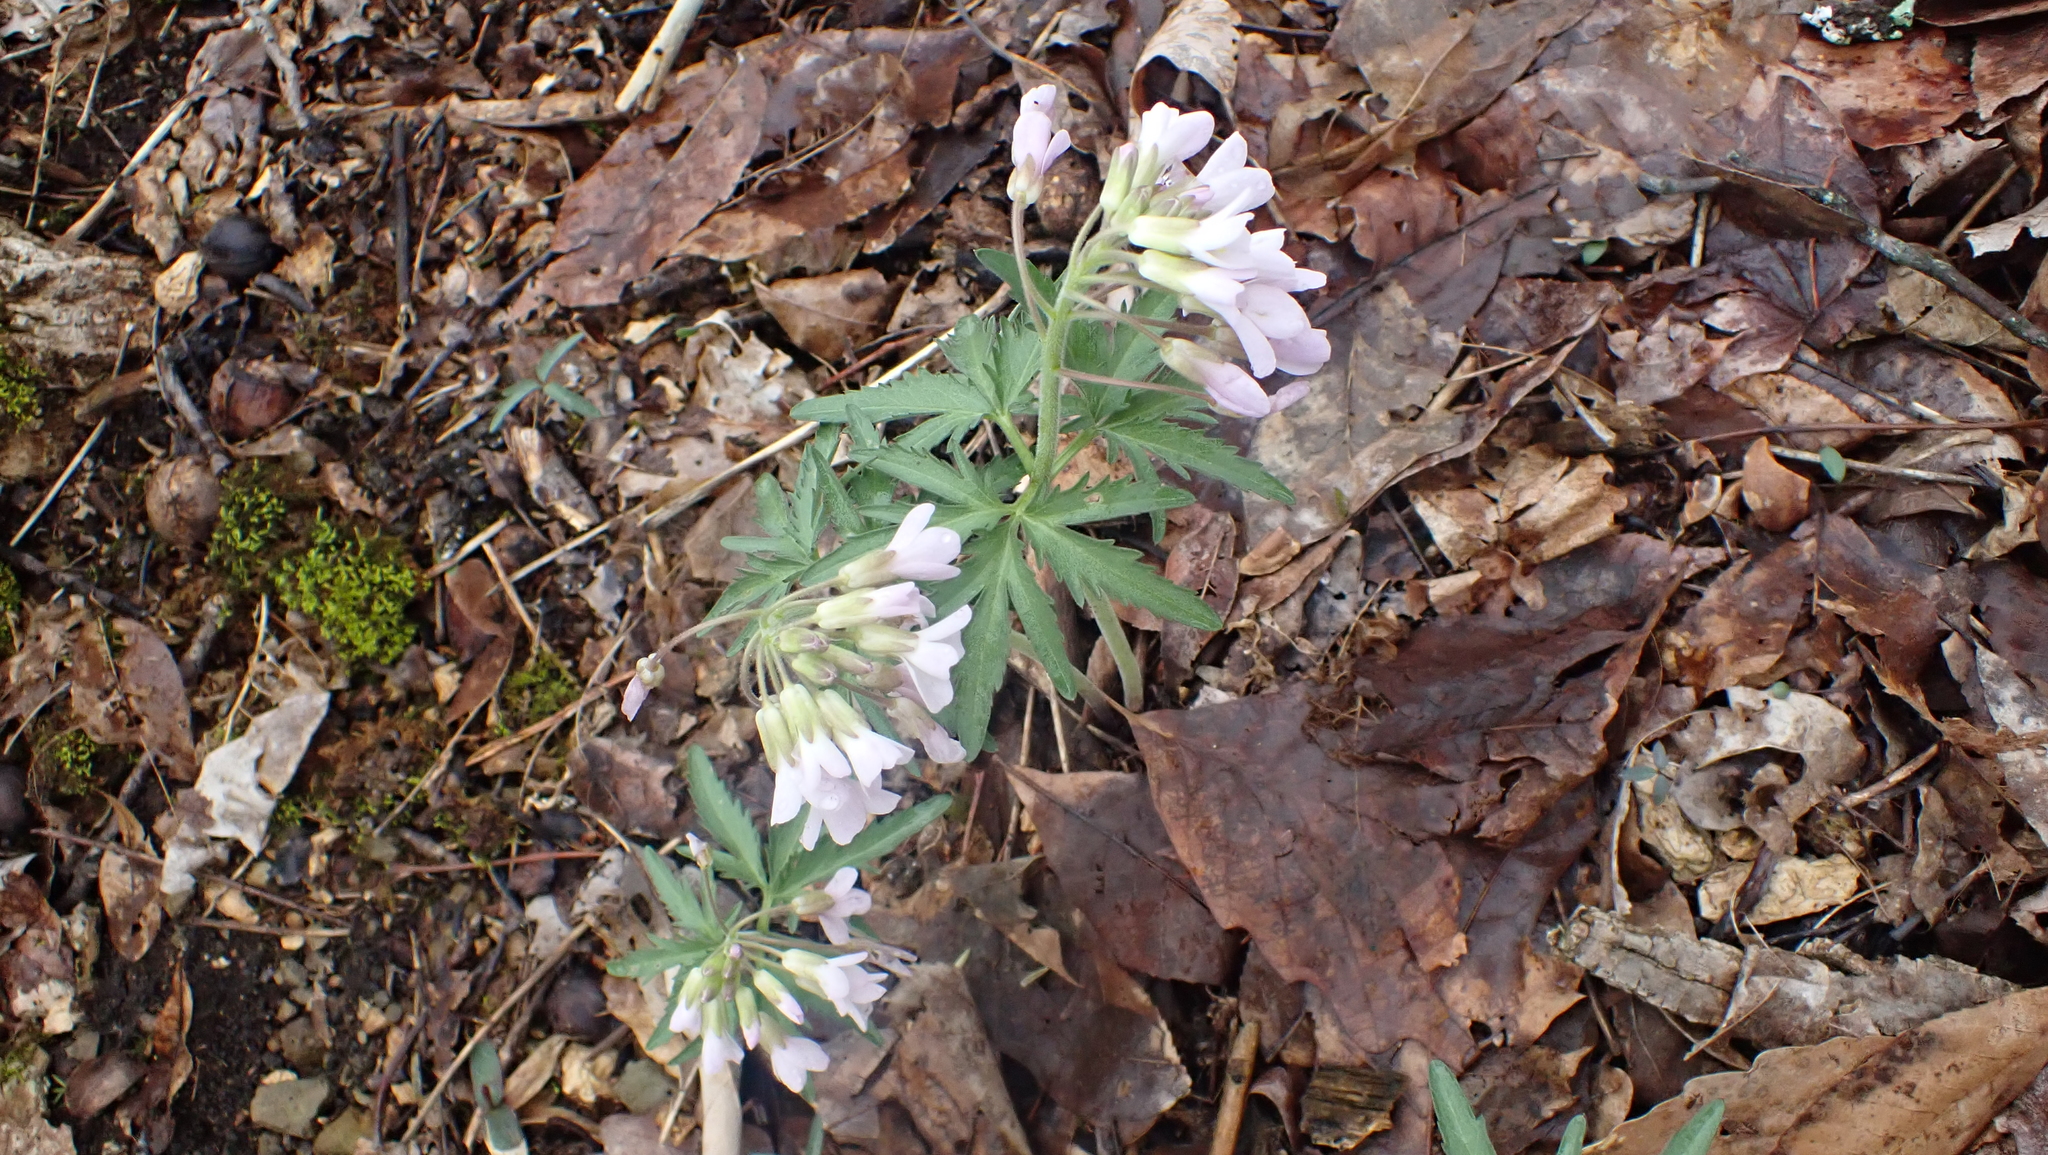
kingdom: Plantae
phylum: Tracheophyta
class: Magnoliopsida
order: Brassicales
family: Brassicaceae
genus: Cardamine
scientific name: Cardamine concatenata
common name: Cut-leaf toothcup
